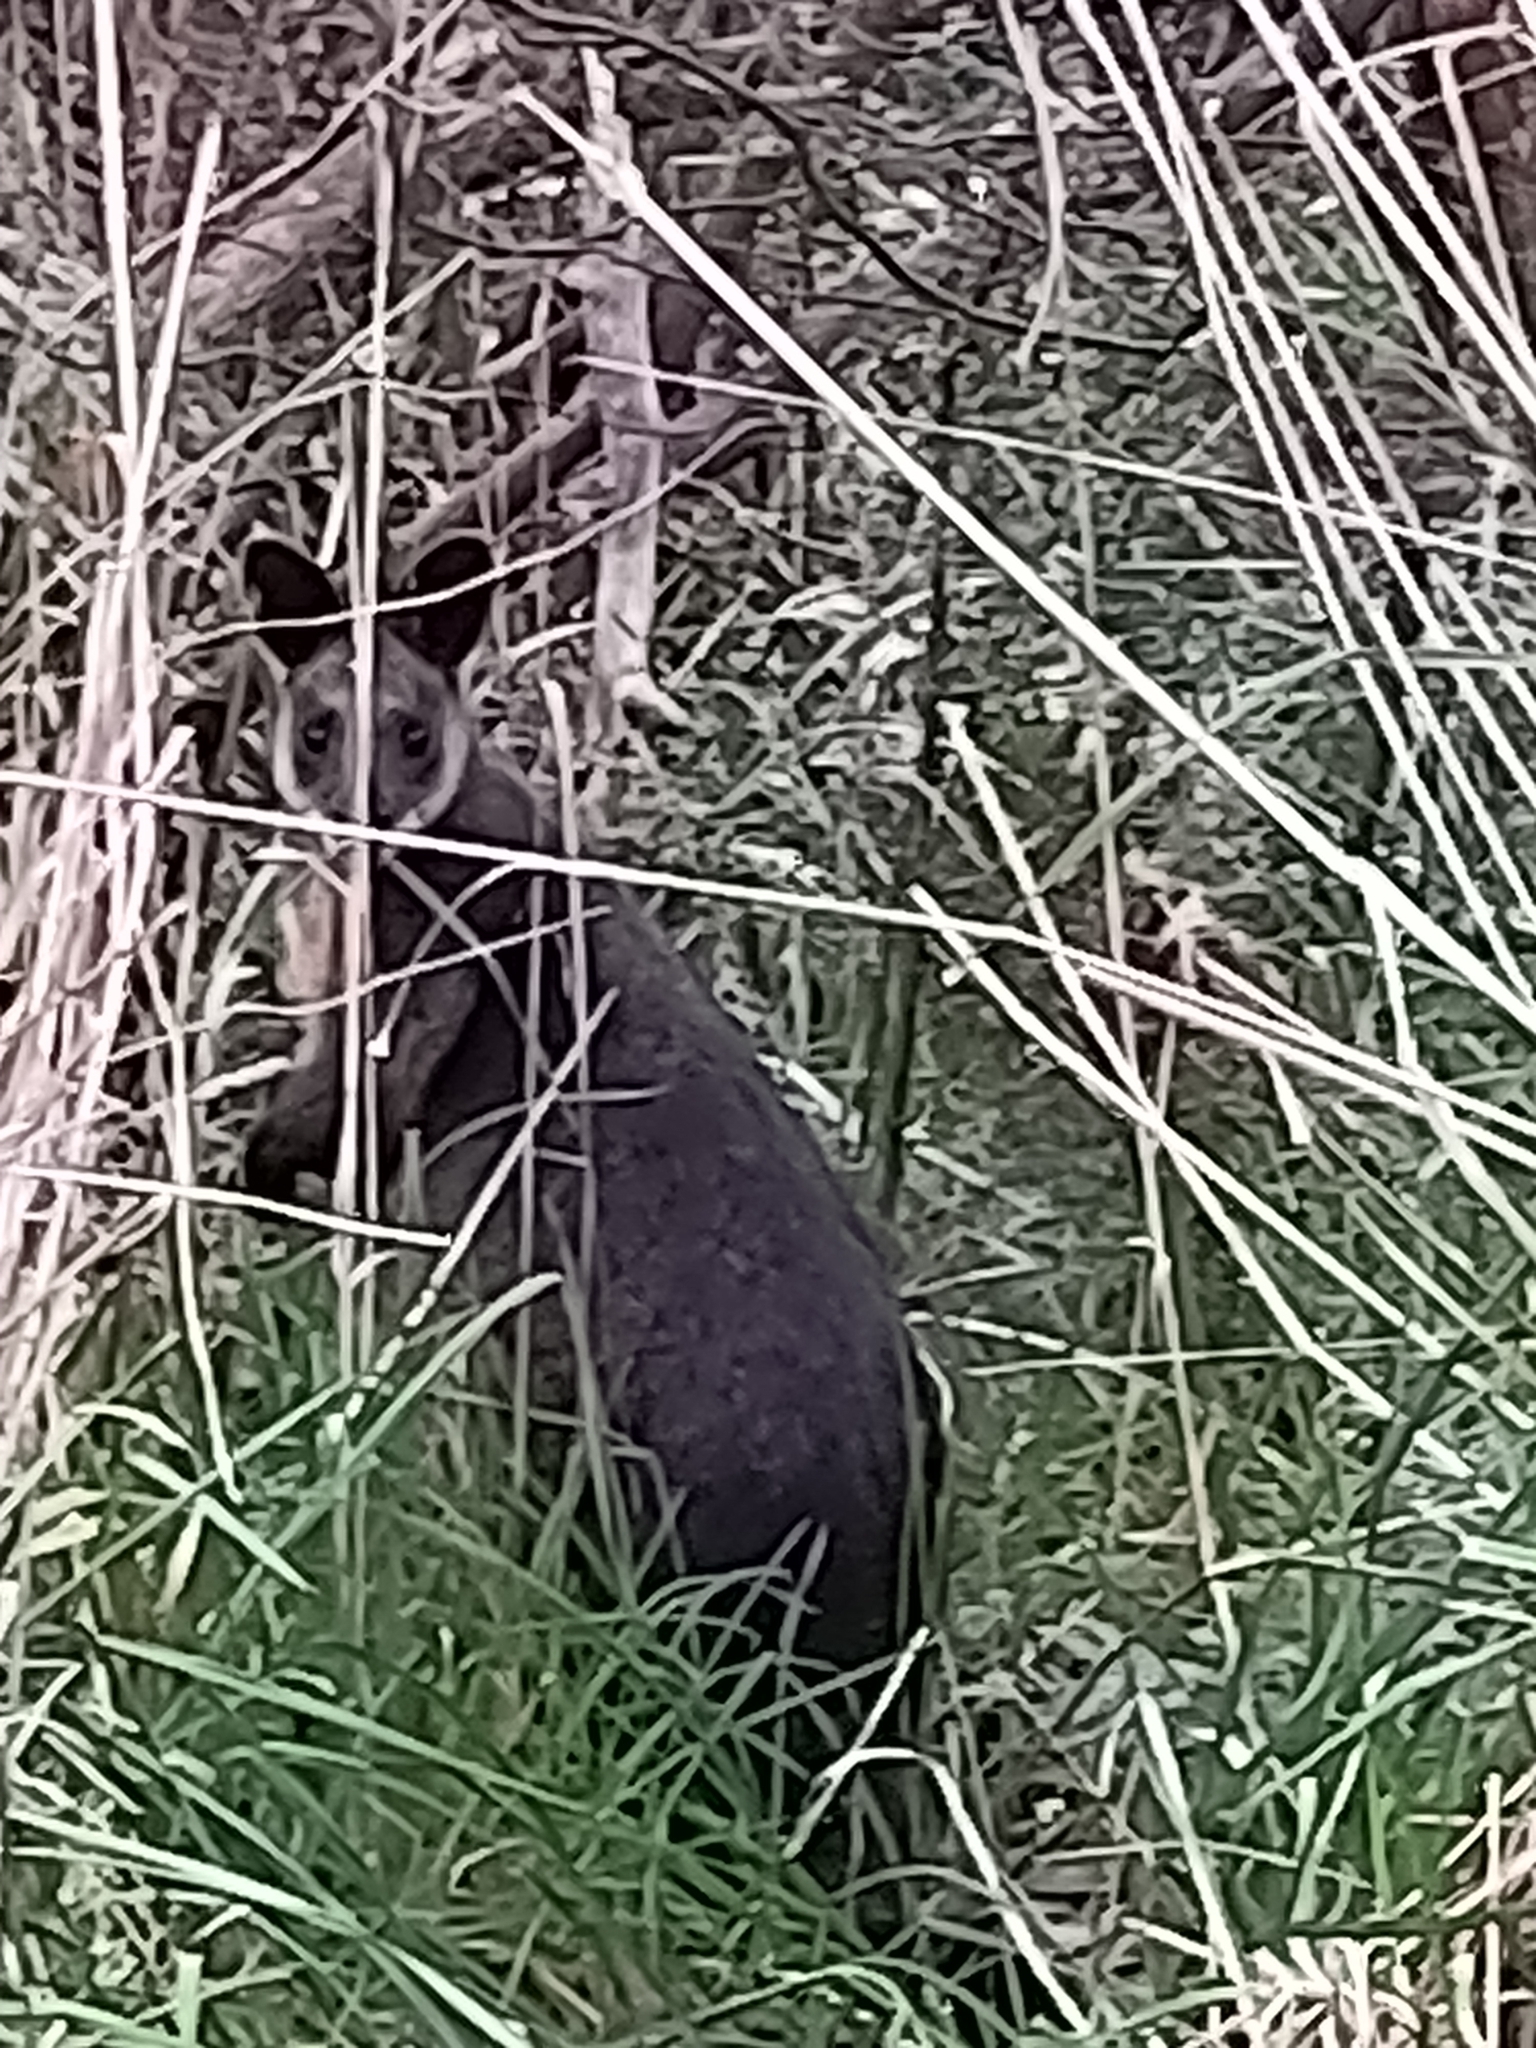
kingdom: Animalia
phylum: Chordata
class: Mammalia
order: Diprotodontia
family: Macropodidae
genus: Wallabia
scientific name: Wallabia bicolor
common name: Swamp wallaby
